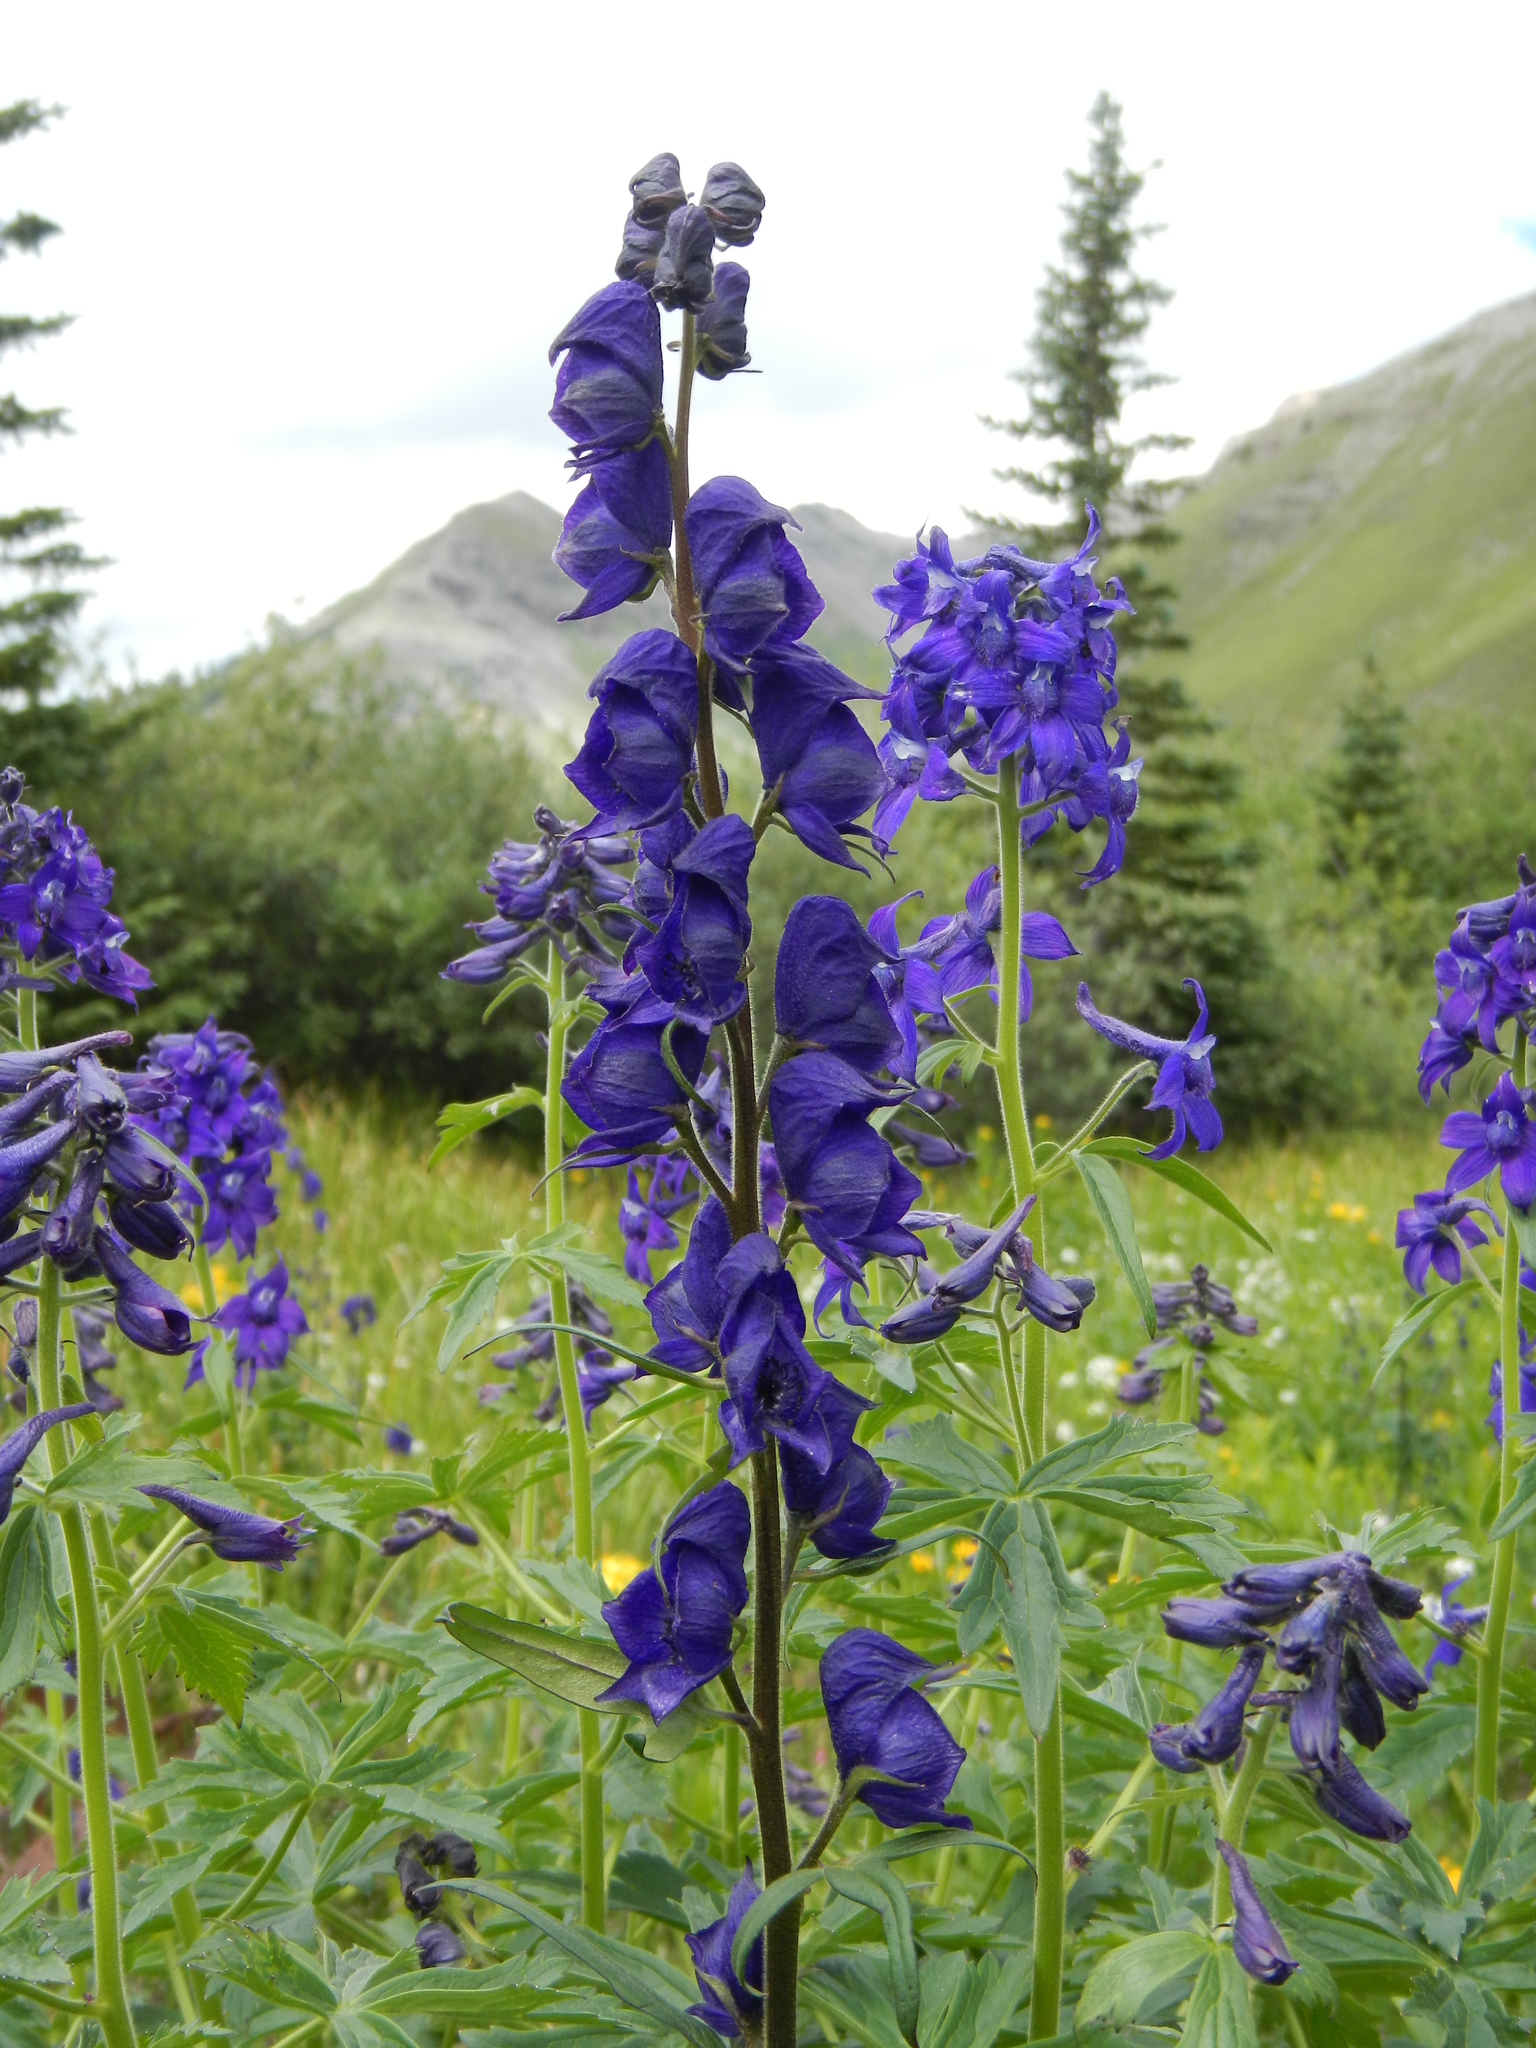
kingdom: Plantae
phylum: Tracheophyta
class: Magnoliopsida
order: Ranunculales
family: Ranunculaceae
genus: Aconitum
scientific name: Aconitum columbianum
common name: Columbia aconite
